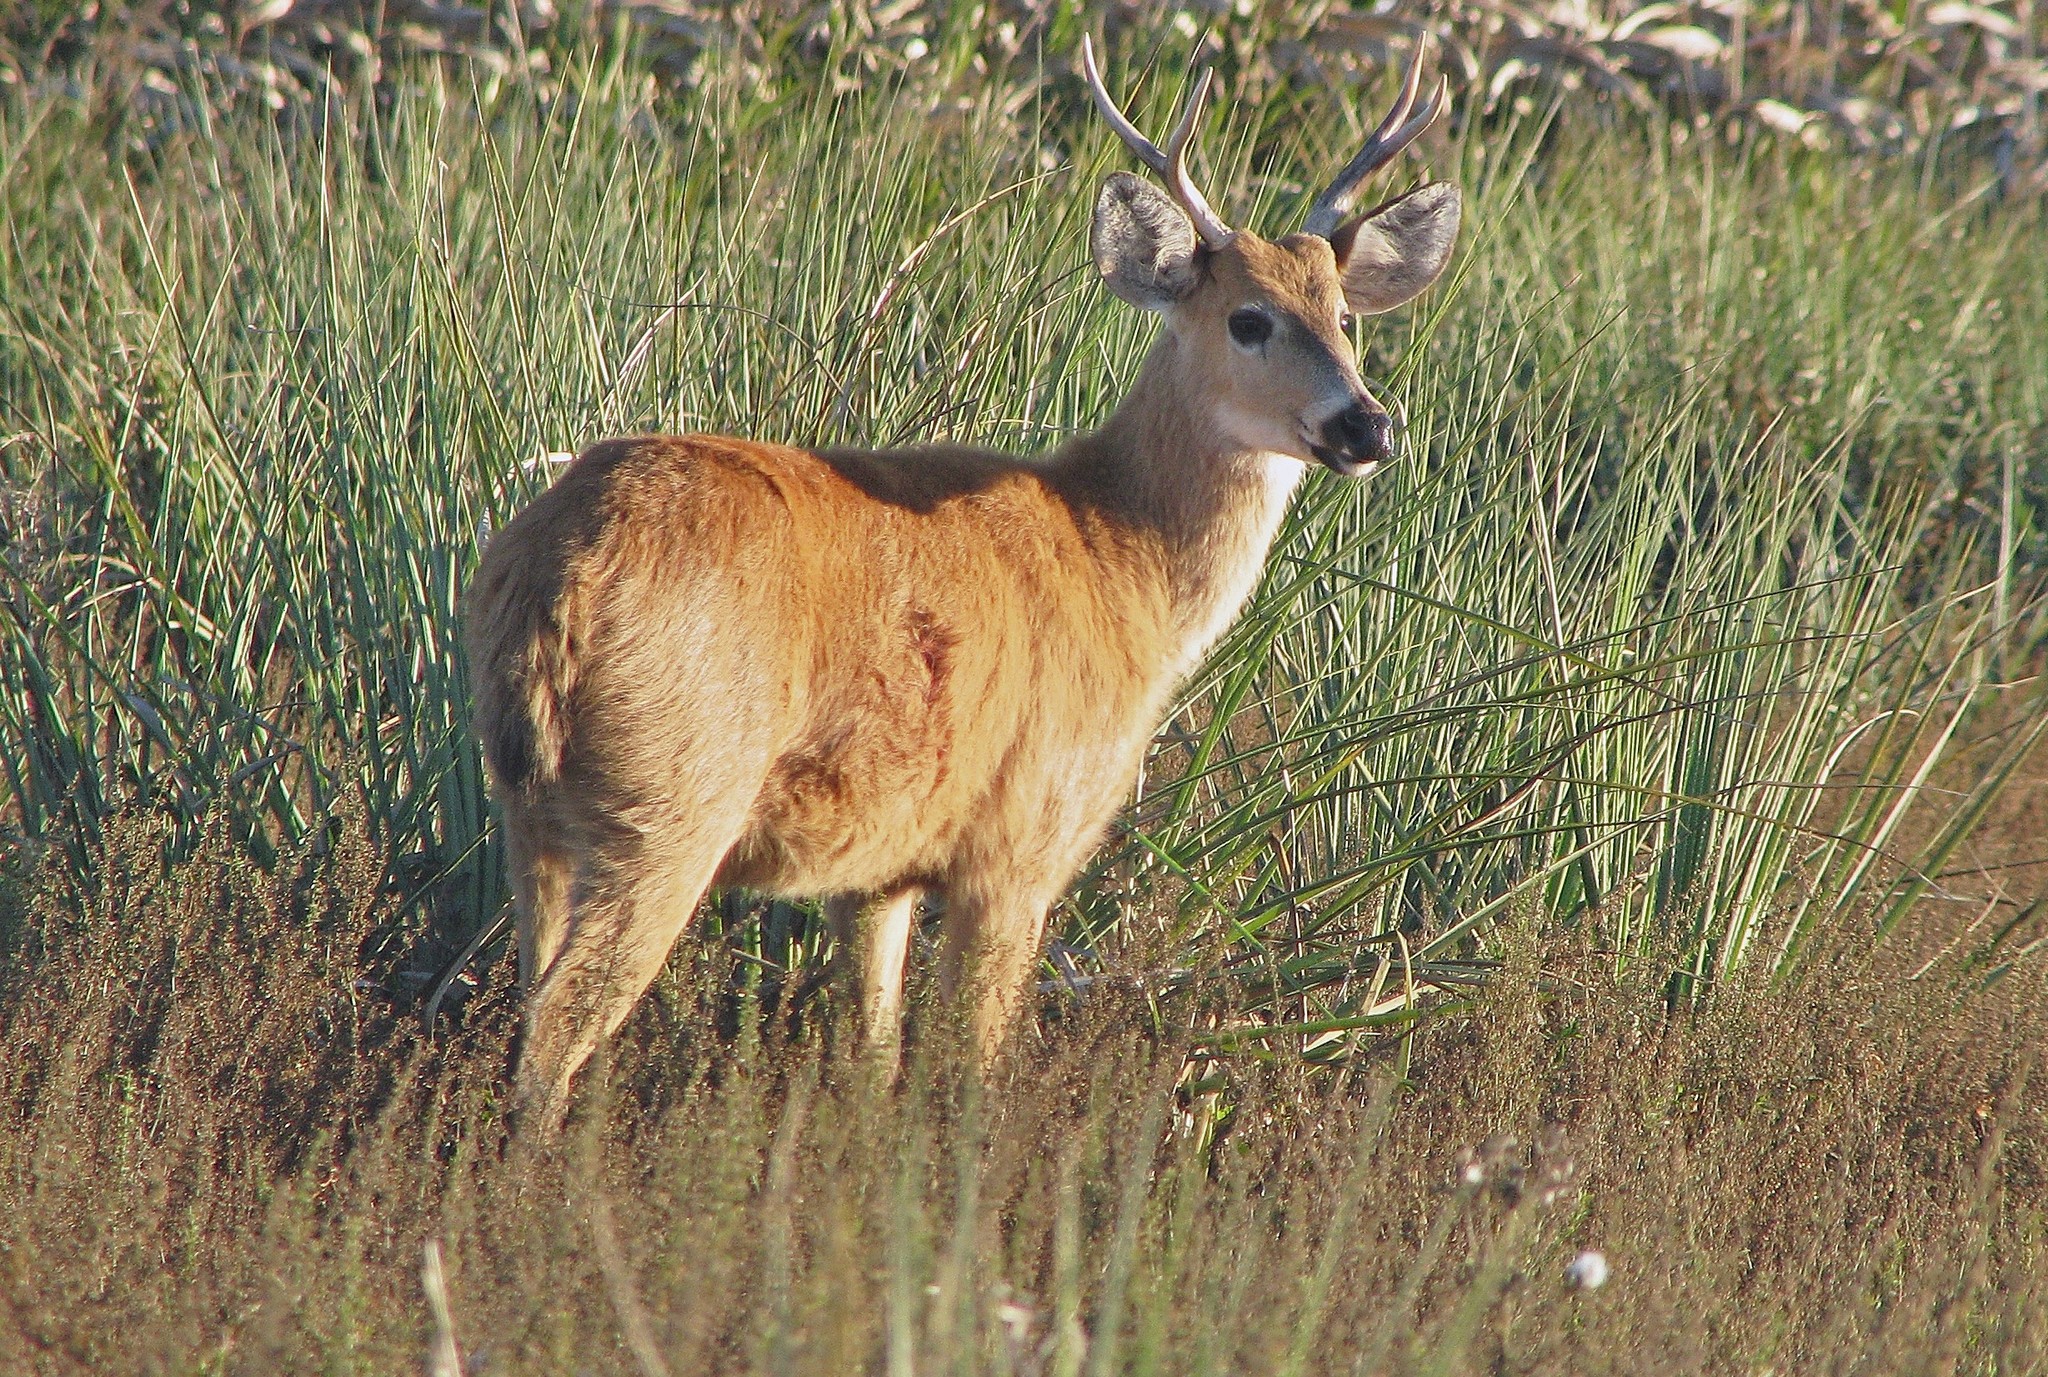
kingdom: Animalia
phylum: Chordata
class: Mammalia
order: Artiodactyla
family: Cervidae
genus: Blastocerus
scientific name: Blastocerus dichotomus
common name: Marsh deer
